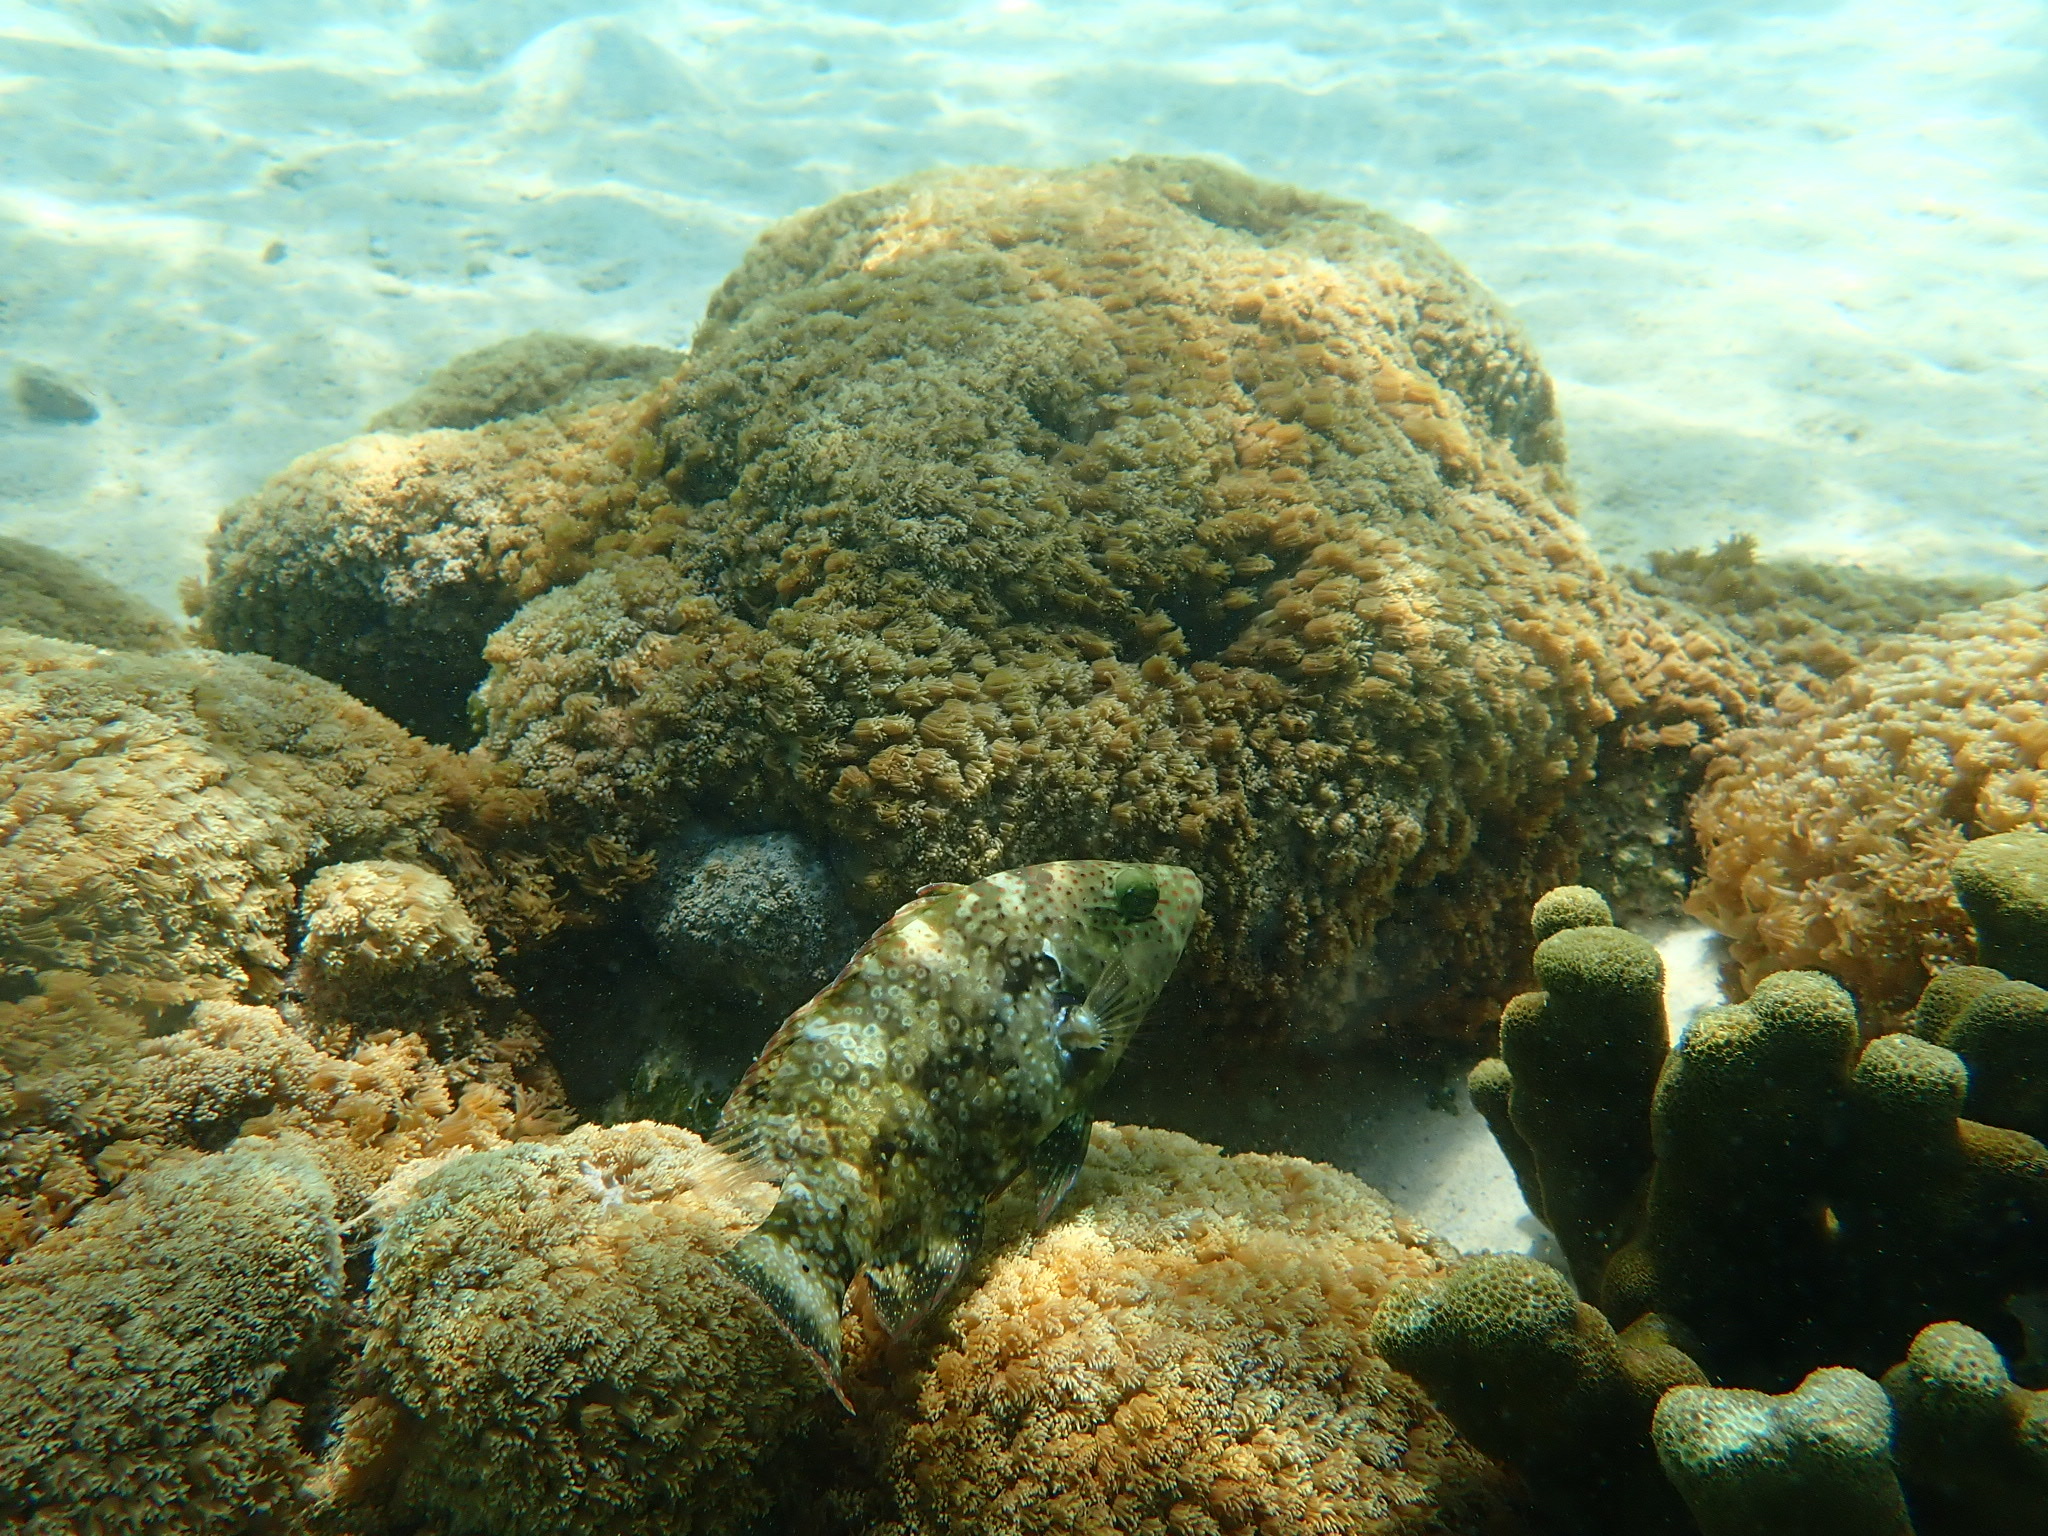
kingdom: Animalia
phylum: Chordata
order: Perciformes
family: Labridae
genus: Cheilinus
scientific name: Cheilinus chlorourus
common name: Floral wrasse
